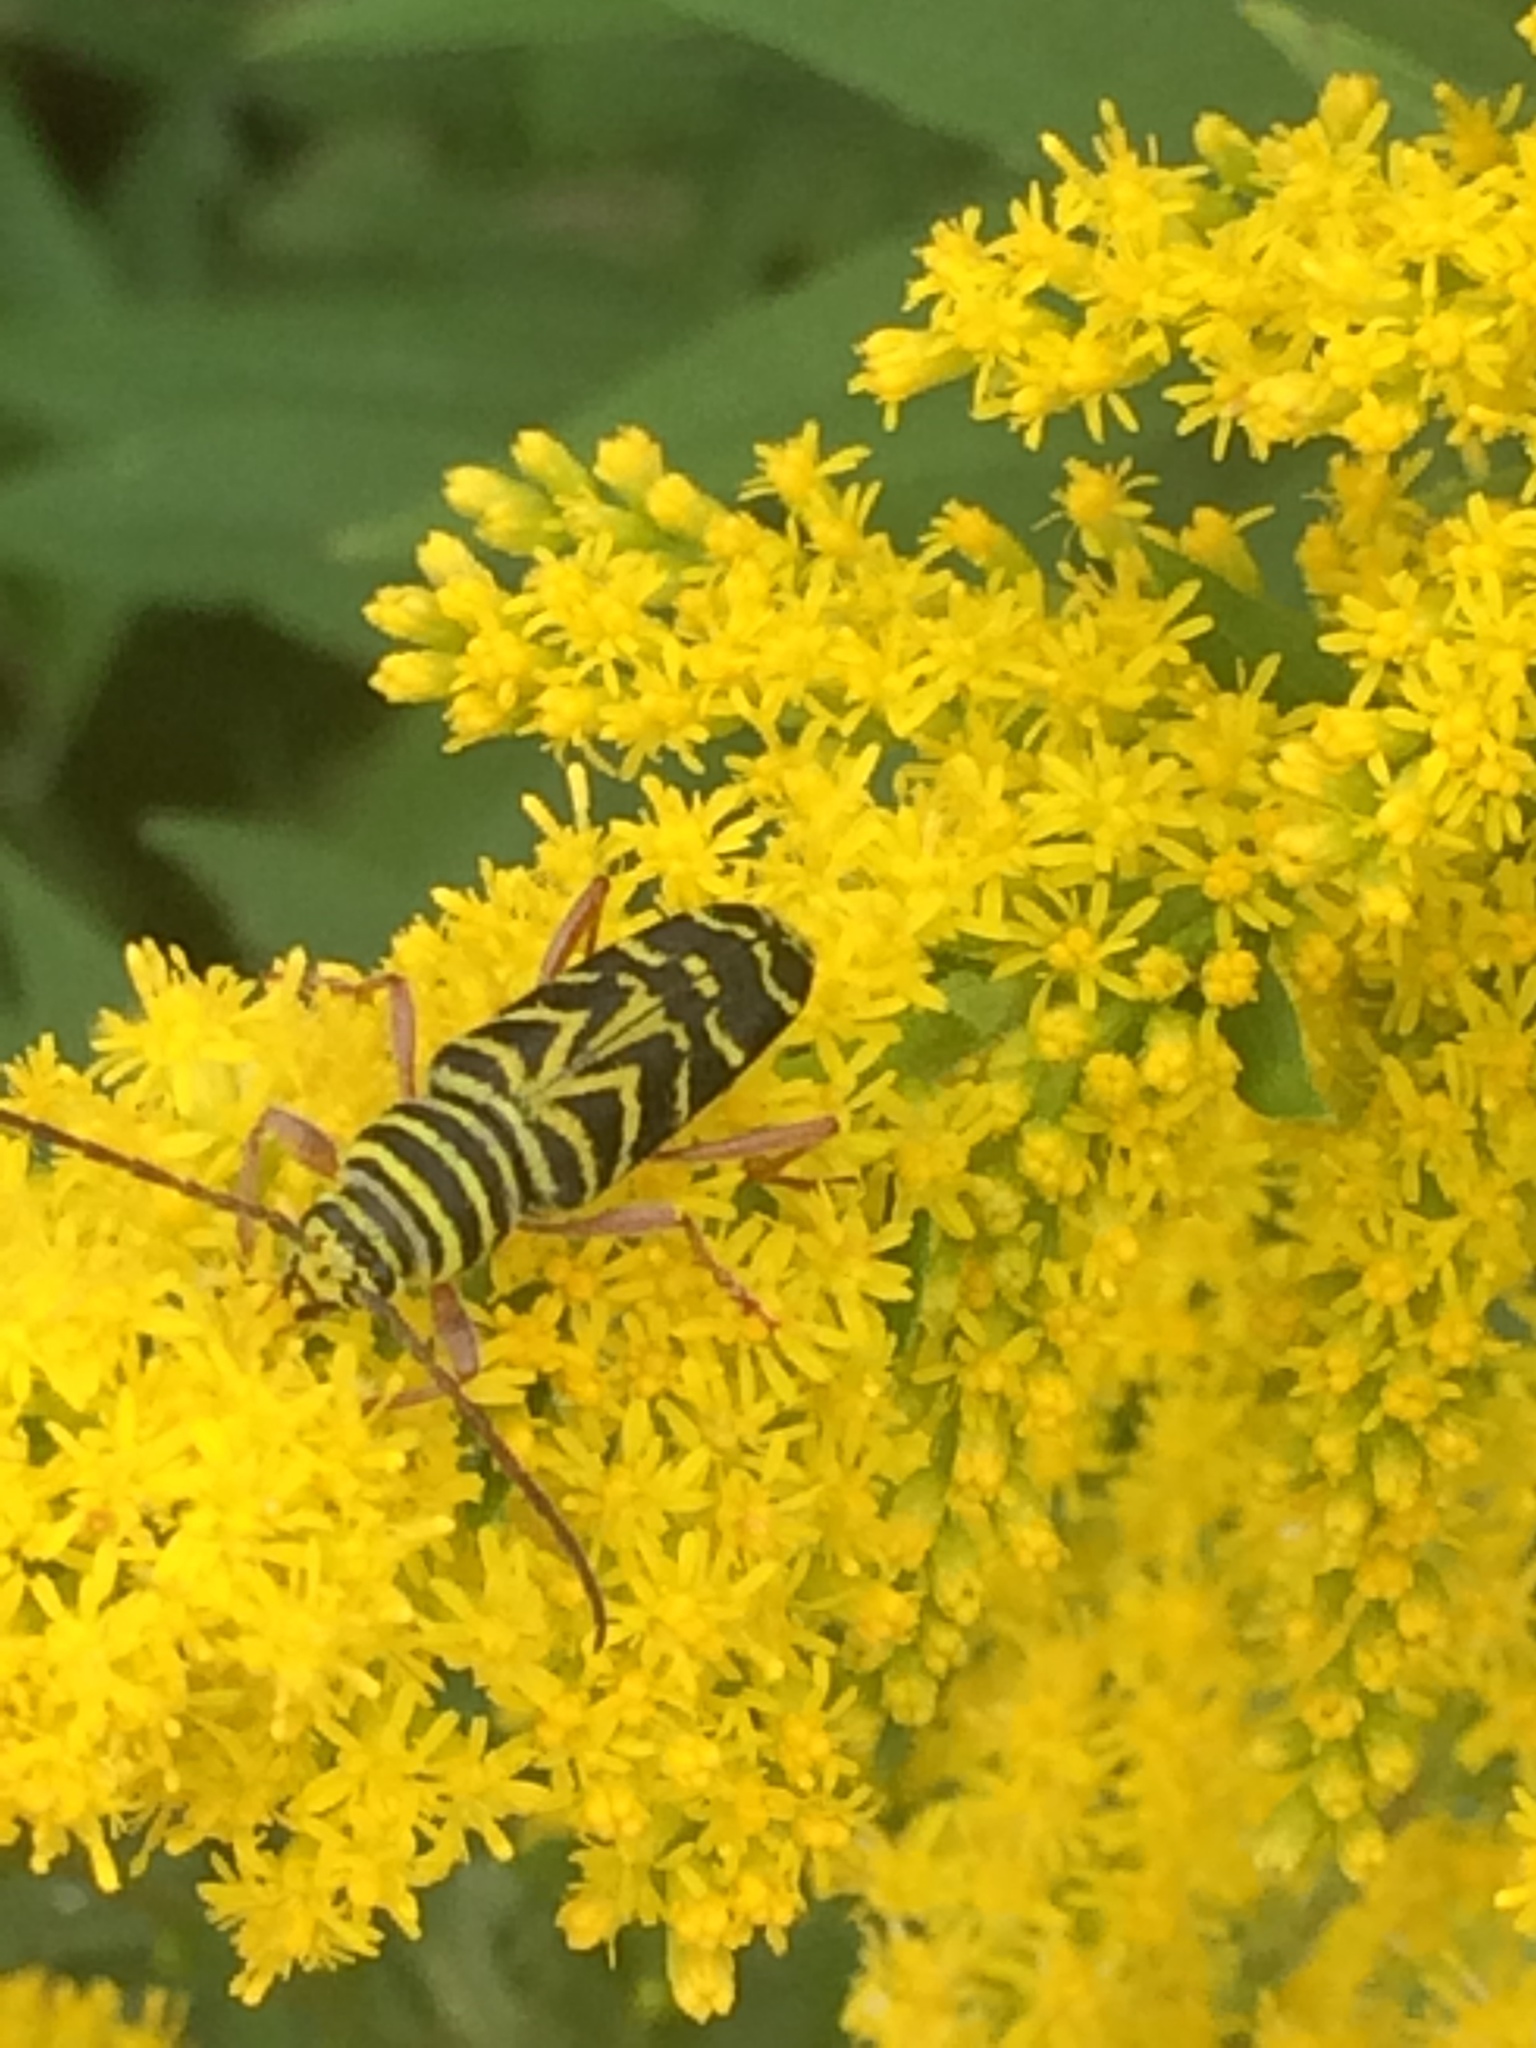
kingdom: Animalia
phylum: Arthropoda
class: Insecta
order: Coleoptera
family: Cerambycidae
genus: Megacyllene
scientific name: Megacyllene robiniae
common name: Locust borer
